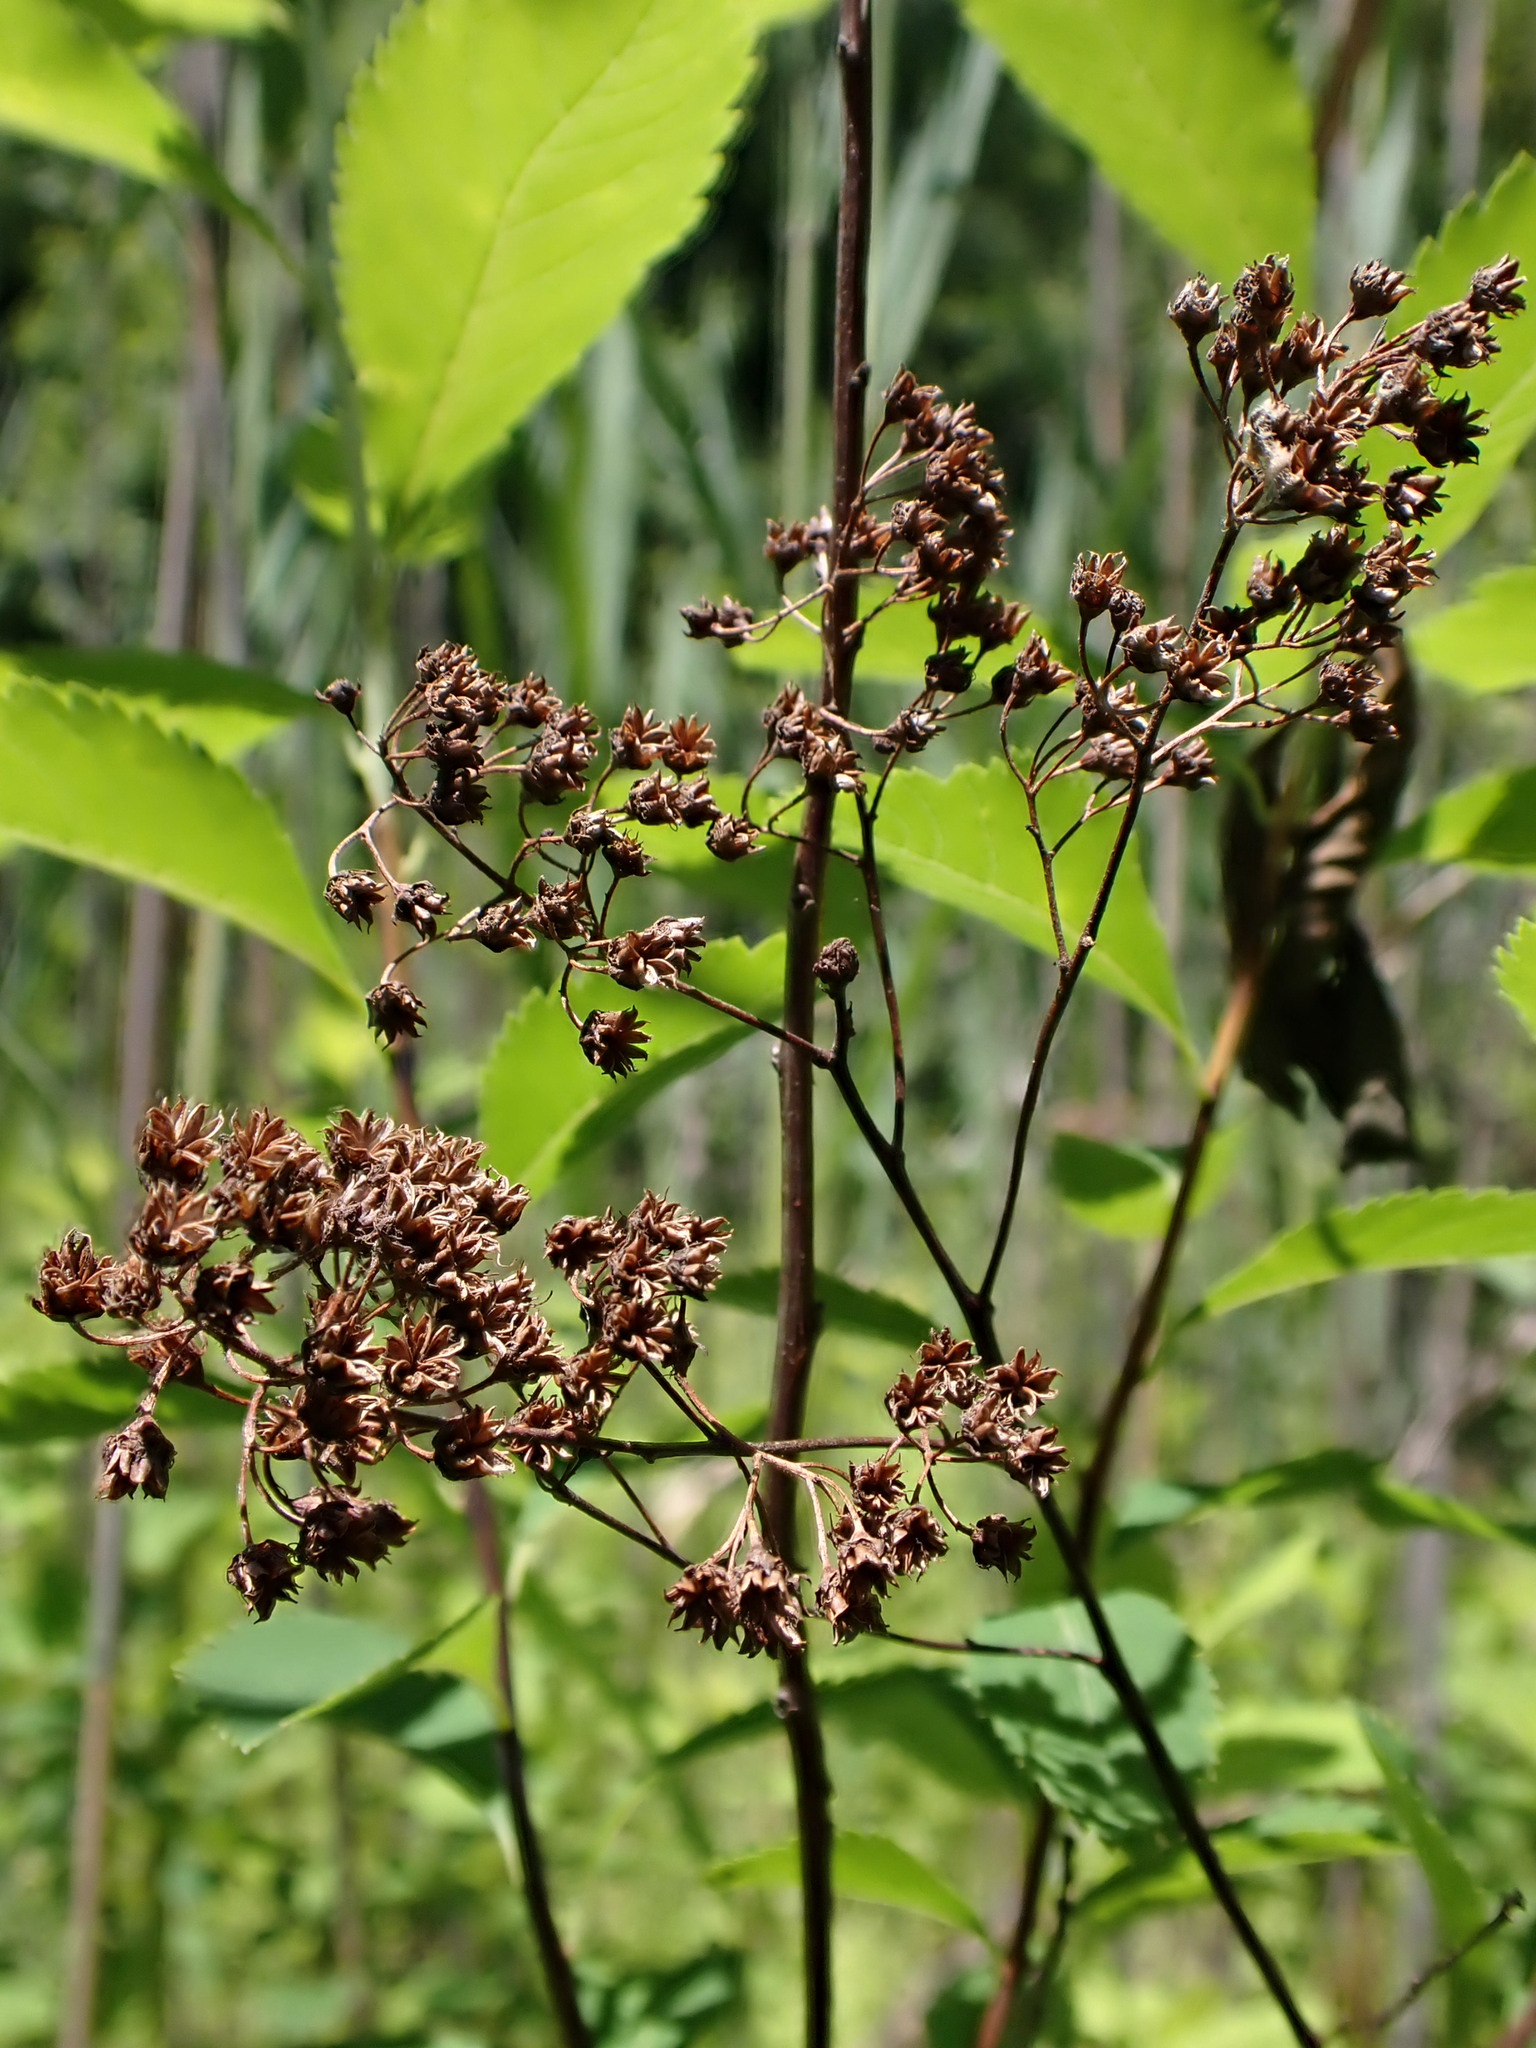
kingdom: Plantae
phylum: Tracheophyta
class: Magnoliopsida
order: Rosales
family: Rosaceae
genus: Spiraea
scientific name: Spiraea alba
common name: Pale bridewort
